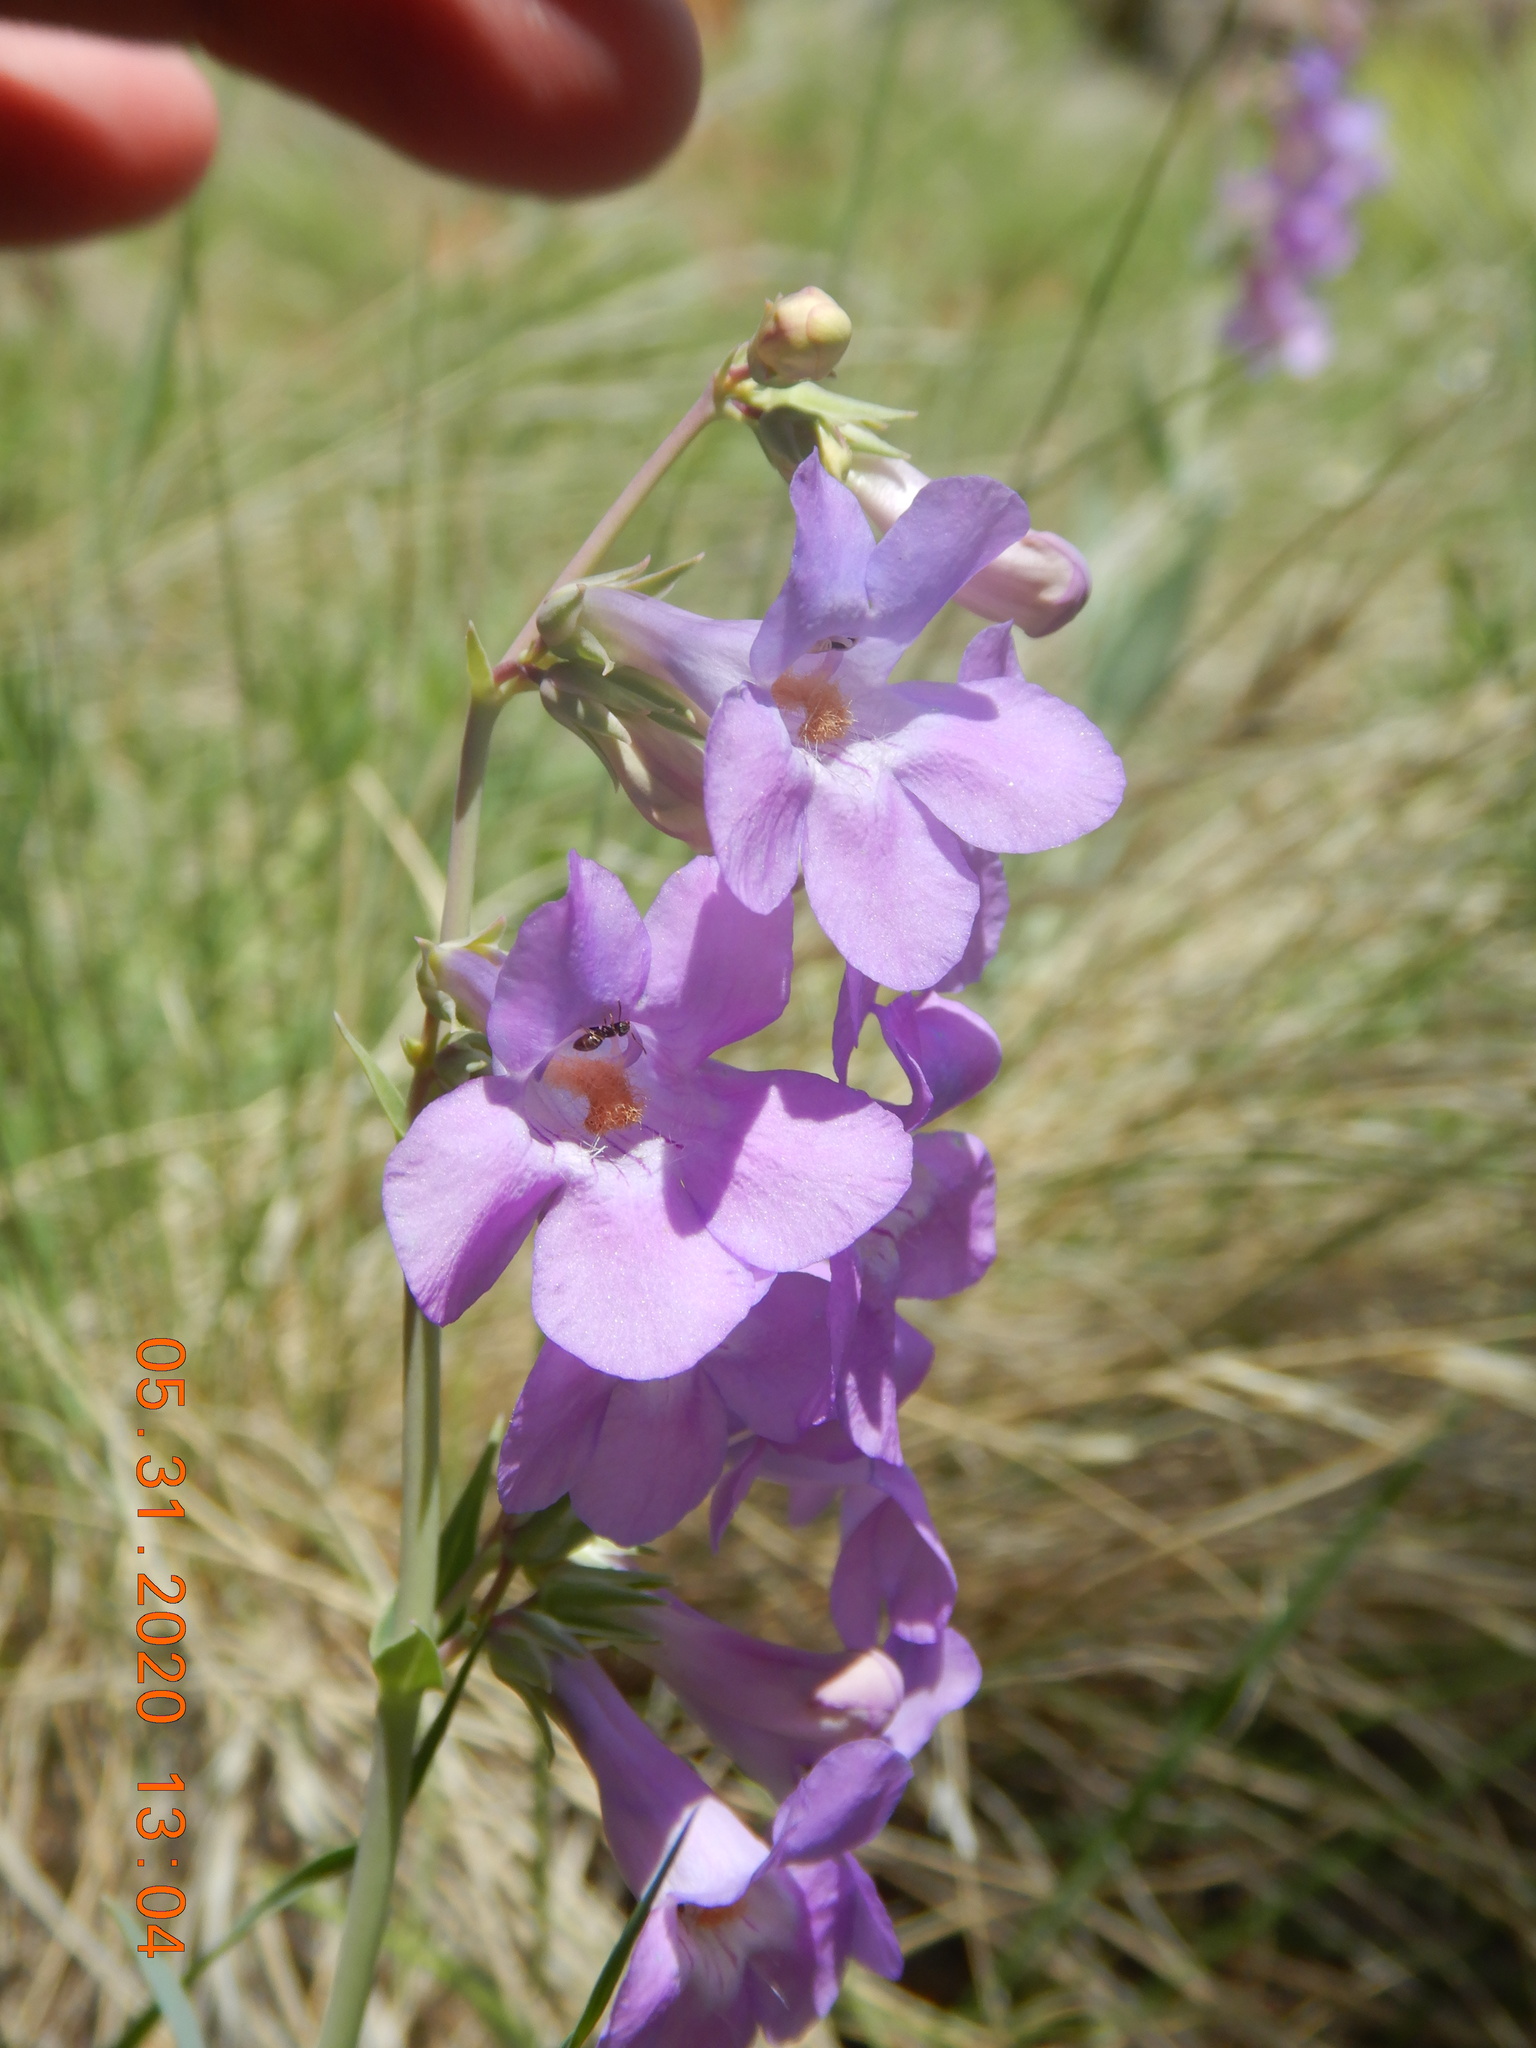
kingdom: Plantae
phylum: Tracheophyta
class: Magnoliopsida
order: Lamiales
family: Plantaginaceae
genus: Penstemon
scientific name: Penstemon secundiflorus
